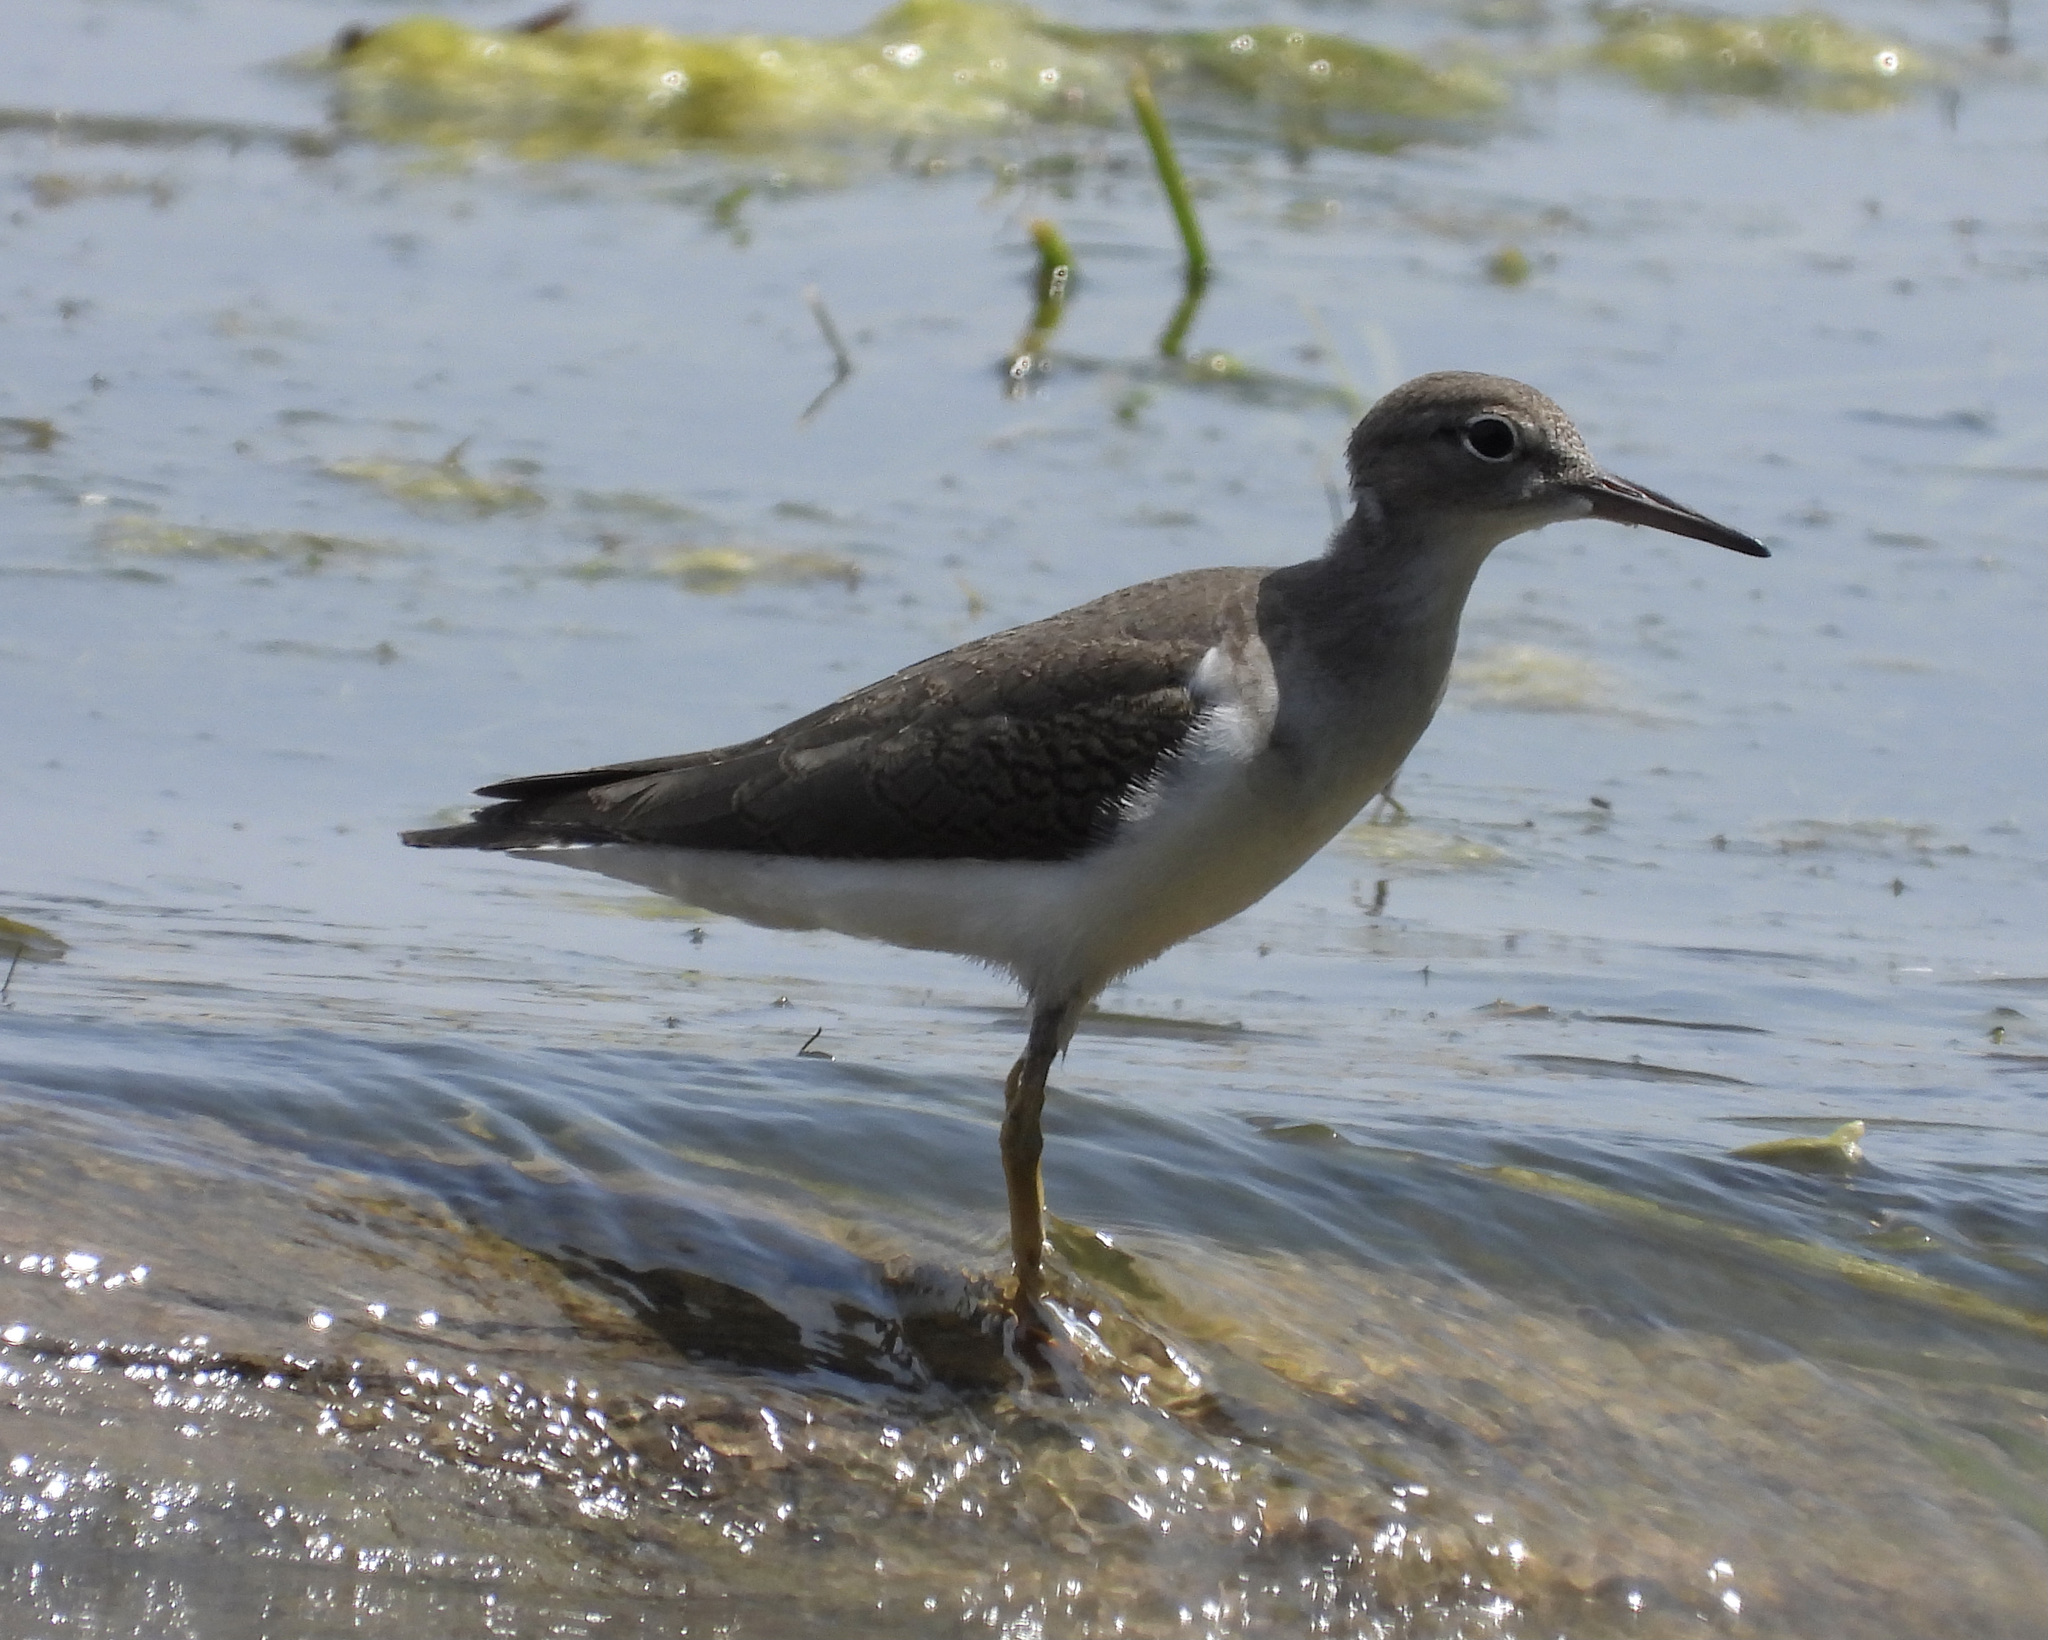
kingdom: Animalia
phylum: Chordata
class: Aves
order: Charadriiformes
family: Scolopacidae
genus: Actitis
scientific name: Actitis macularius
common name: Spotted sandpiper
